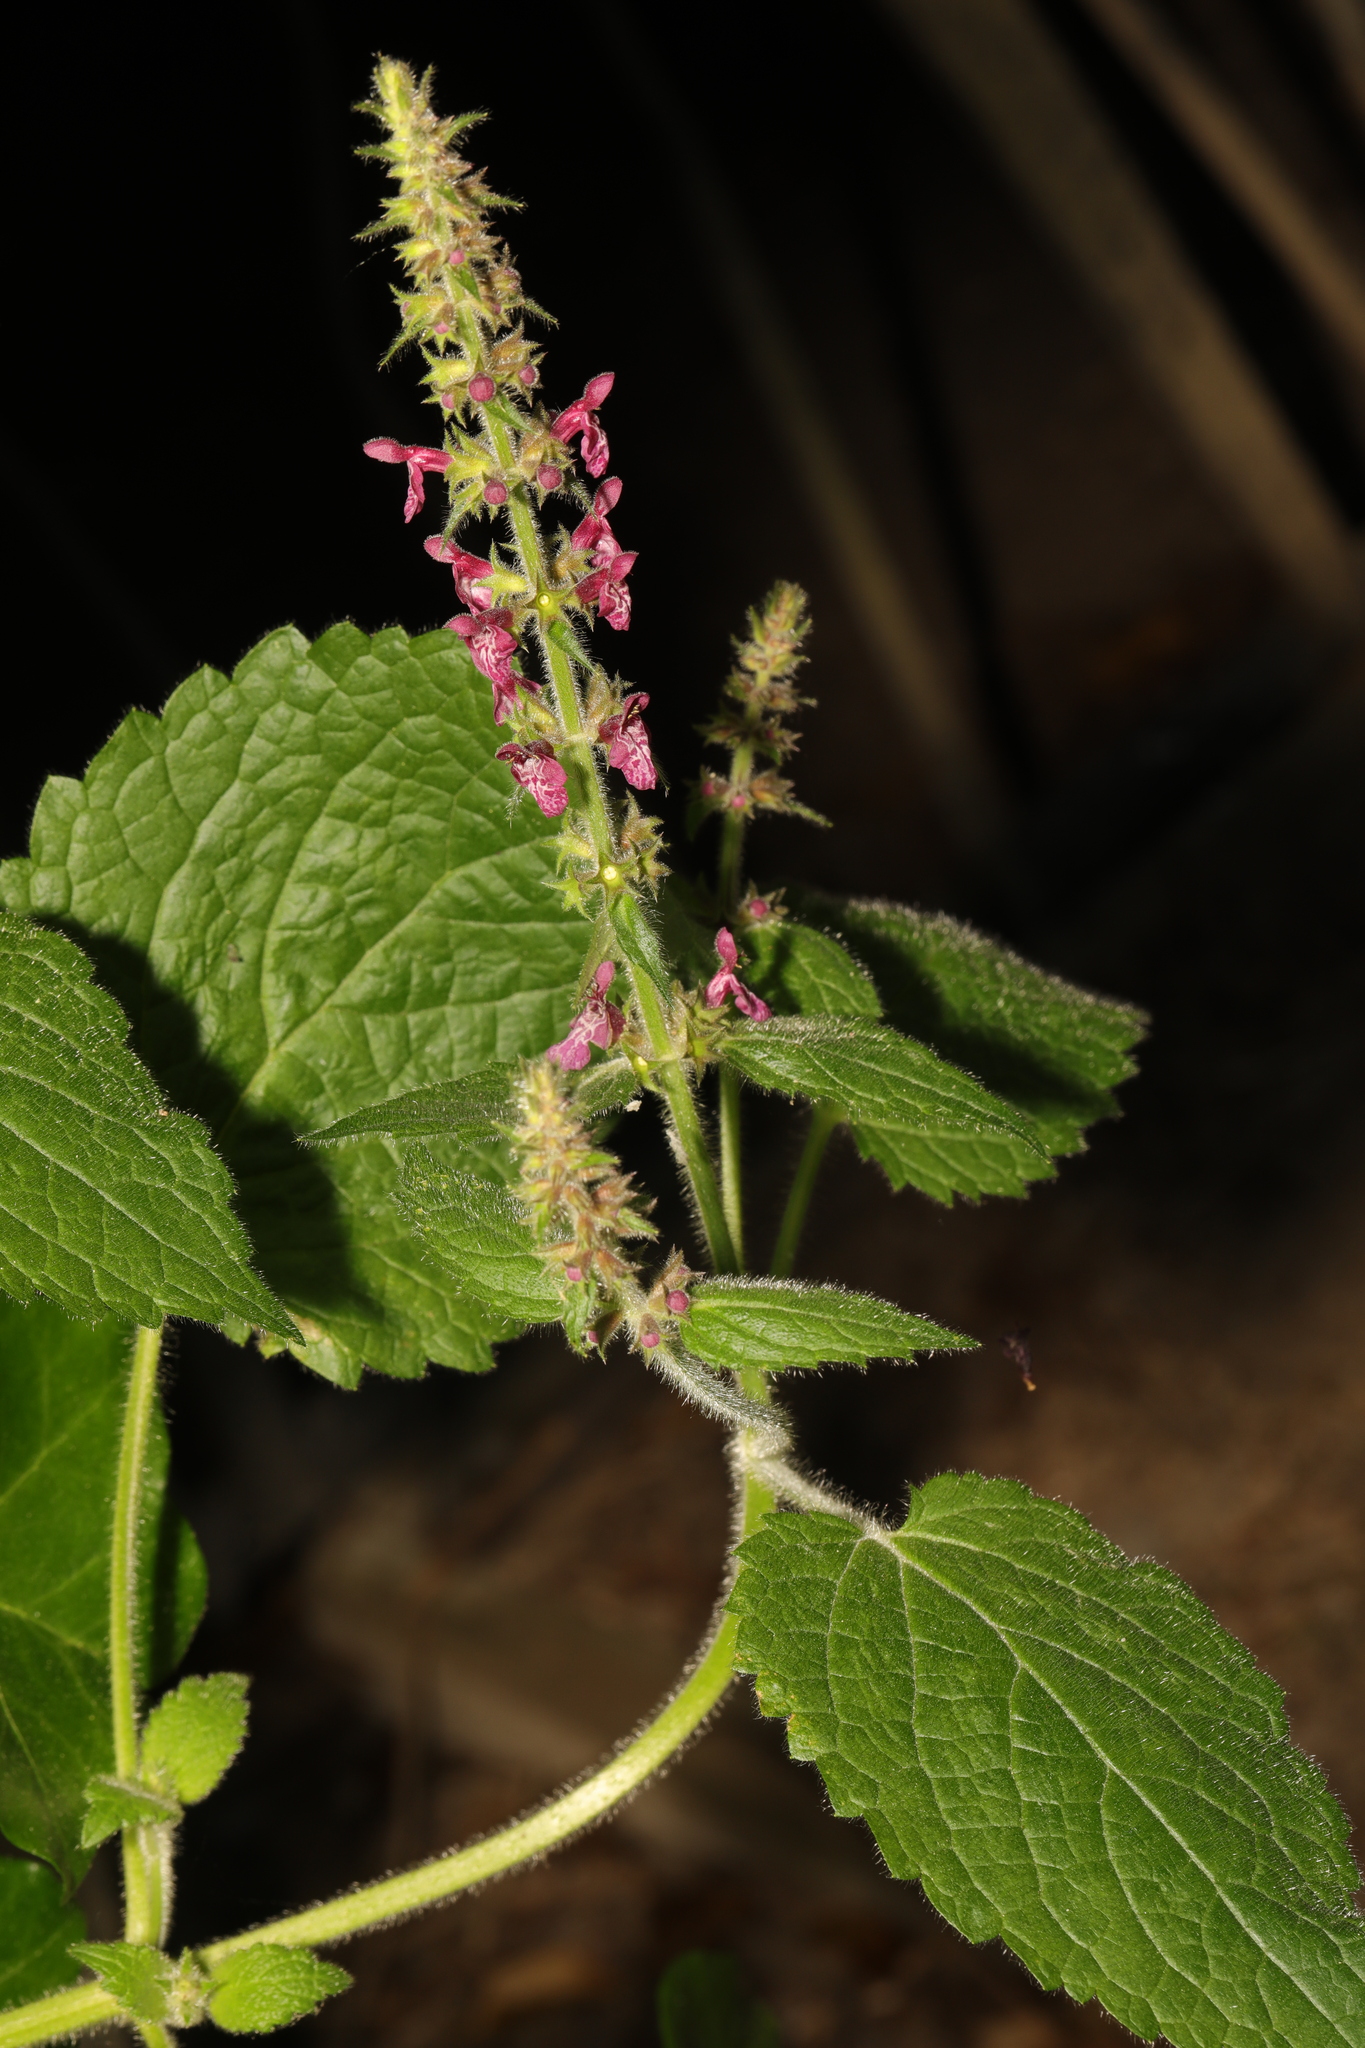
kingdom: Plantae
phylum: Tracheophyta
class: Magnoliopsida
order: Lamiales
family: Lamiaceae
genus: Stachys
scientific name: Stachys sylvatica
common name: Hedge woundwort
